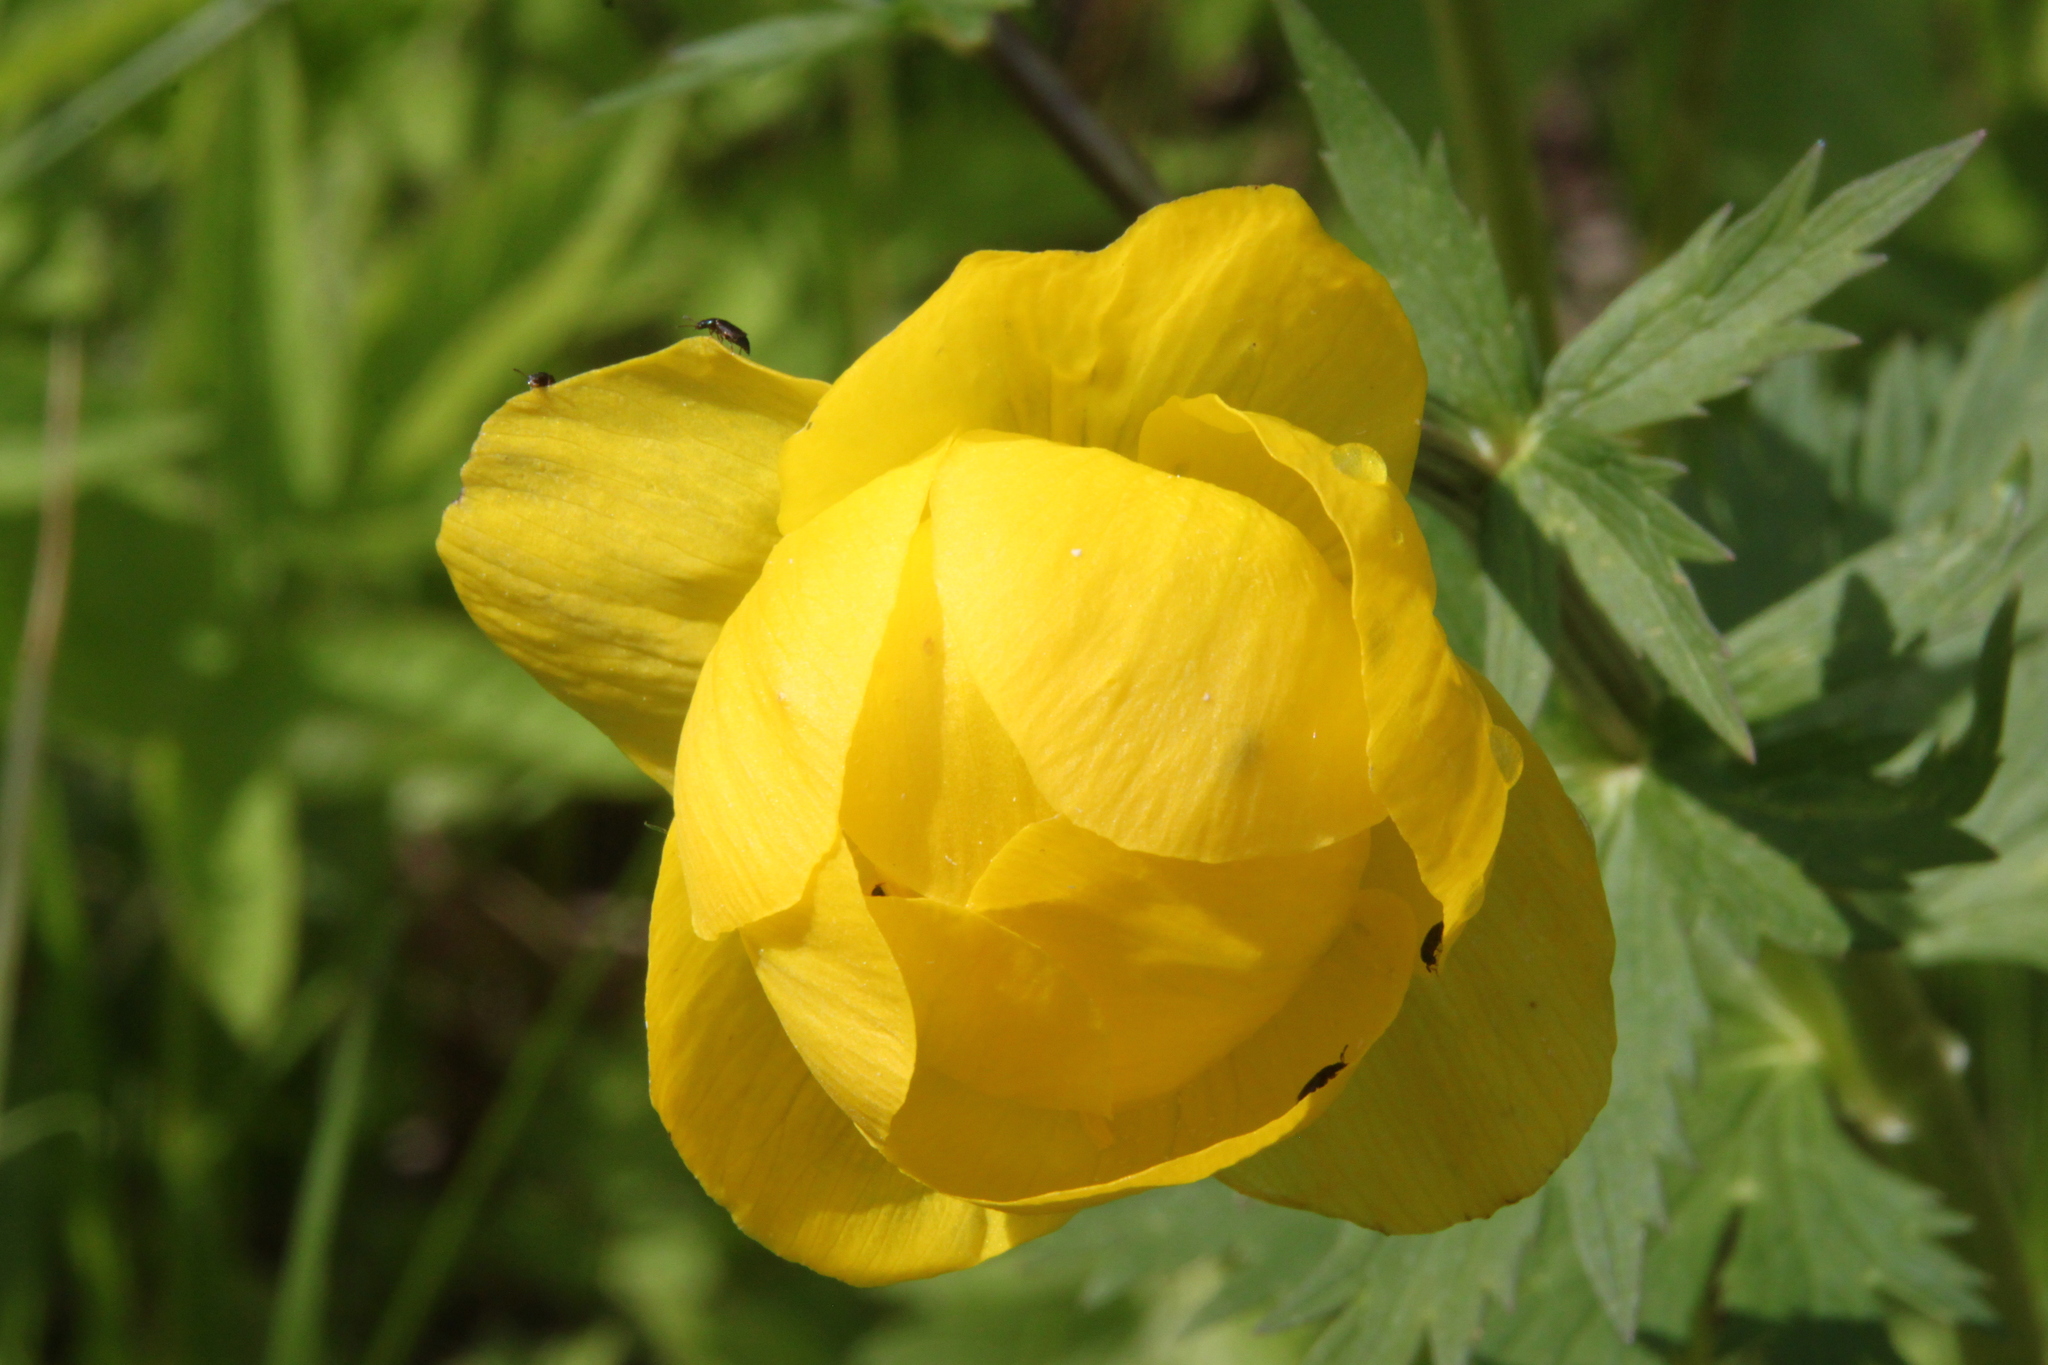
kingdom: Plantae
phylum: Tracheophyta
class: Magnoliopsida
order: Ranunculales
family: Ranunculaceae
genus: Trollius
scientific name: Trollius europaeus
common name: European globeflower
